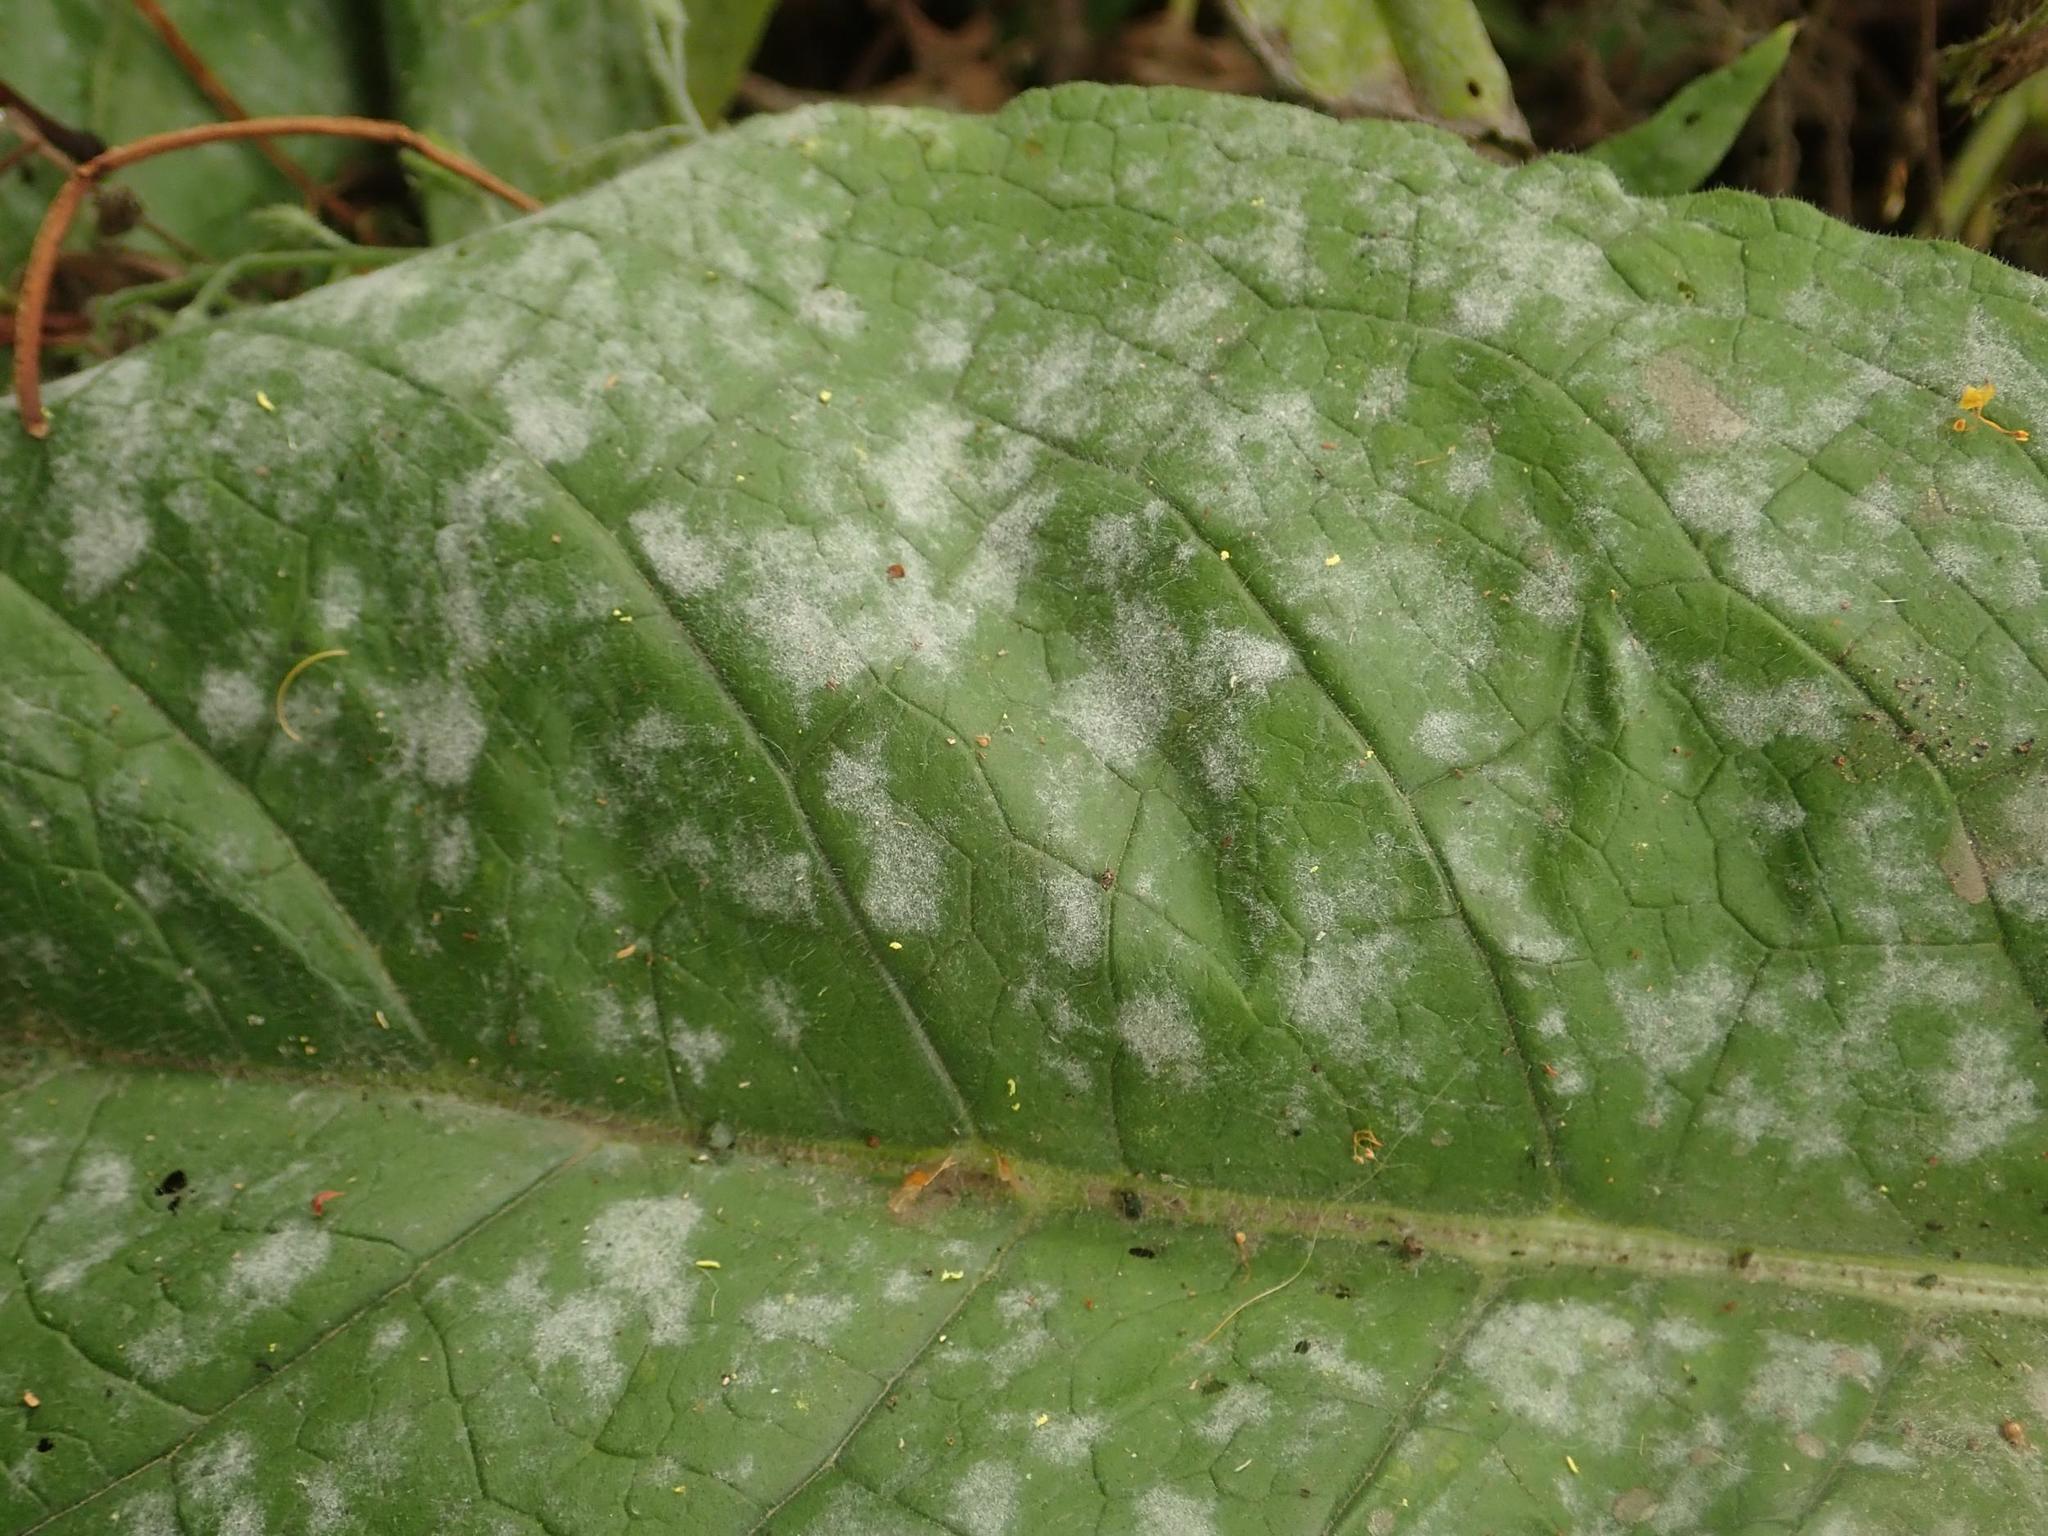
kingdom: Fungi
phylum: Ascomycota
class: Leotiomycetes
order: Helotiales
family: Erysiphaceae
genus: Golovinomyces
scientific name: Golovinomyces asperifoliorum
